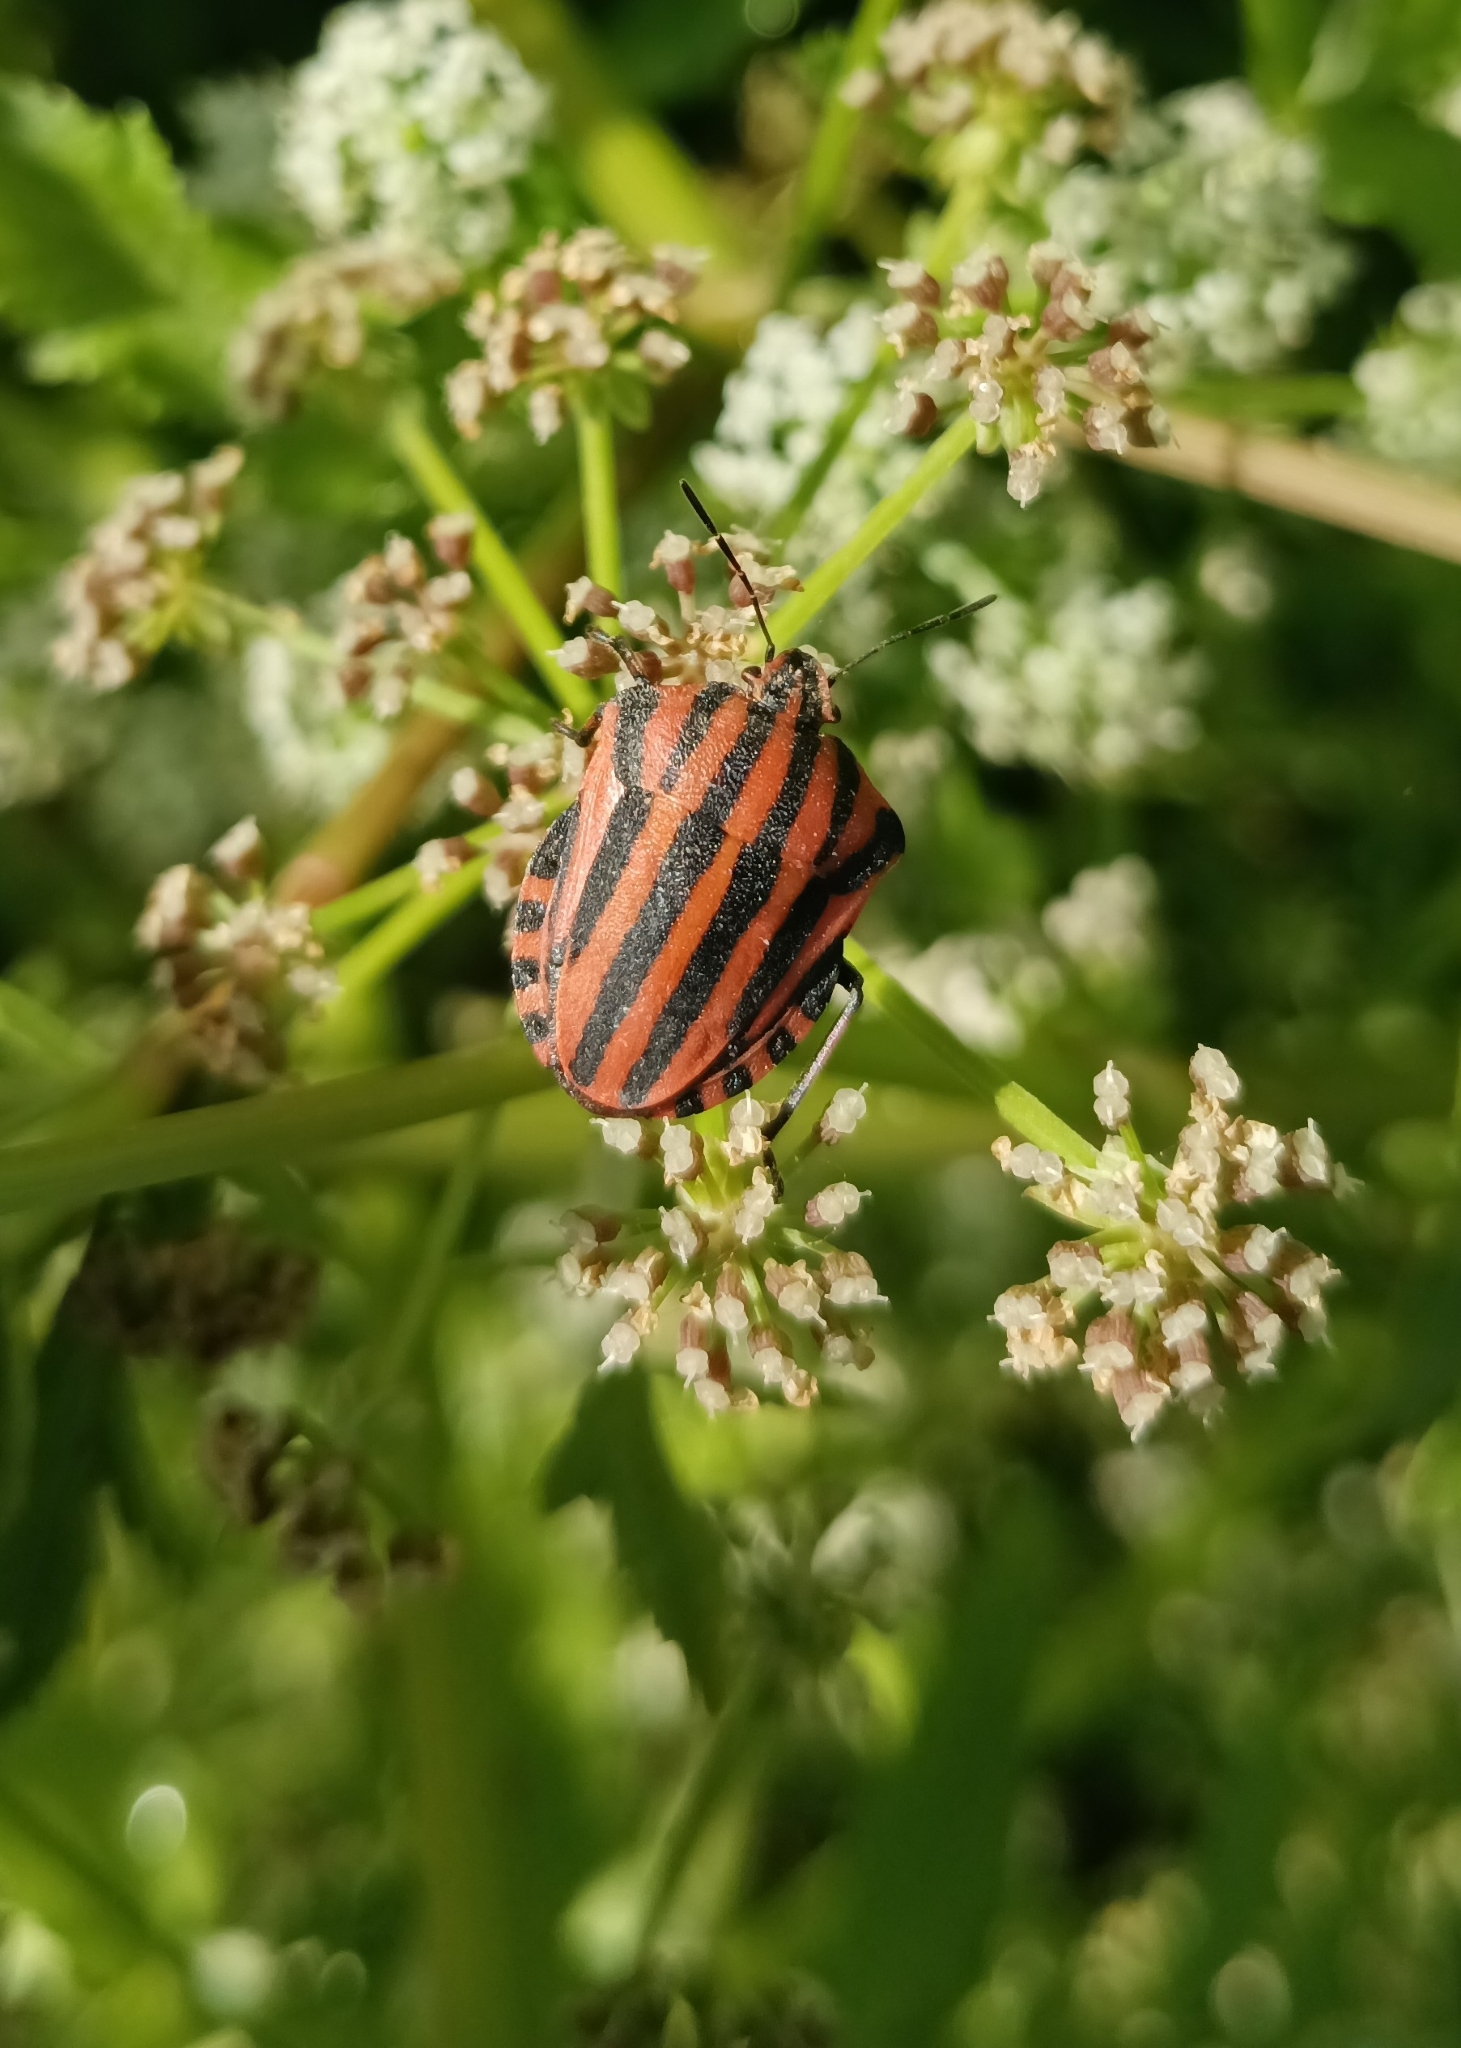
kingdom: Animalia
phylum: Arthropoda
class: Insecta
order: Hemiptera
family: Pentatomidae
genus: Graphosoma
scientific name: Graphosoma italicum
